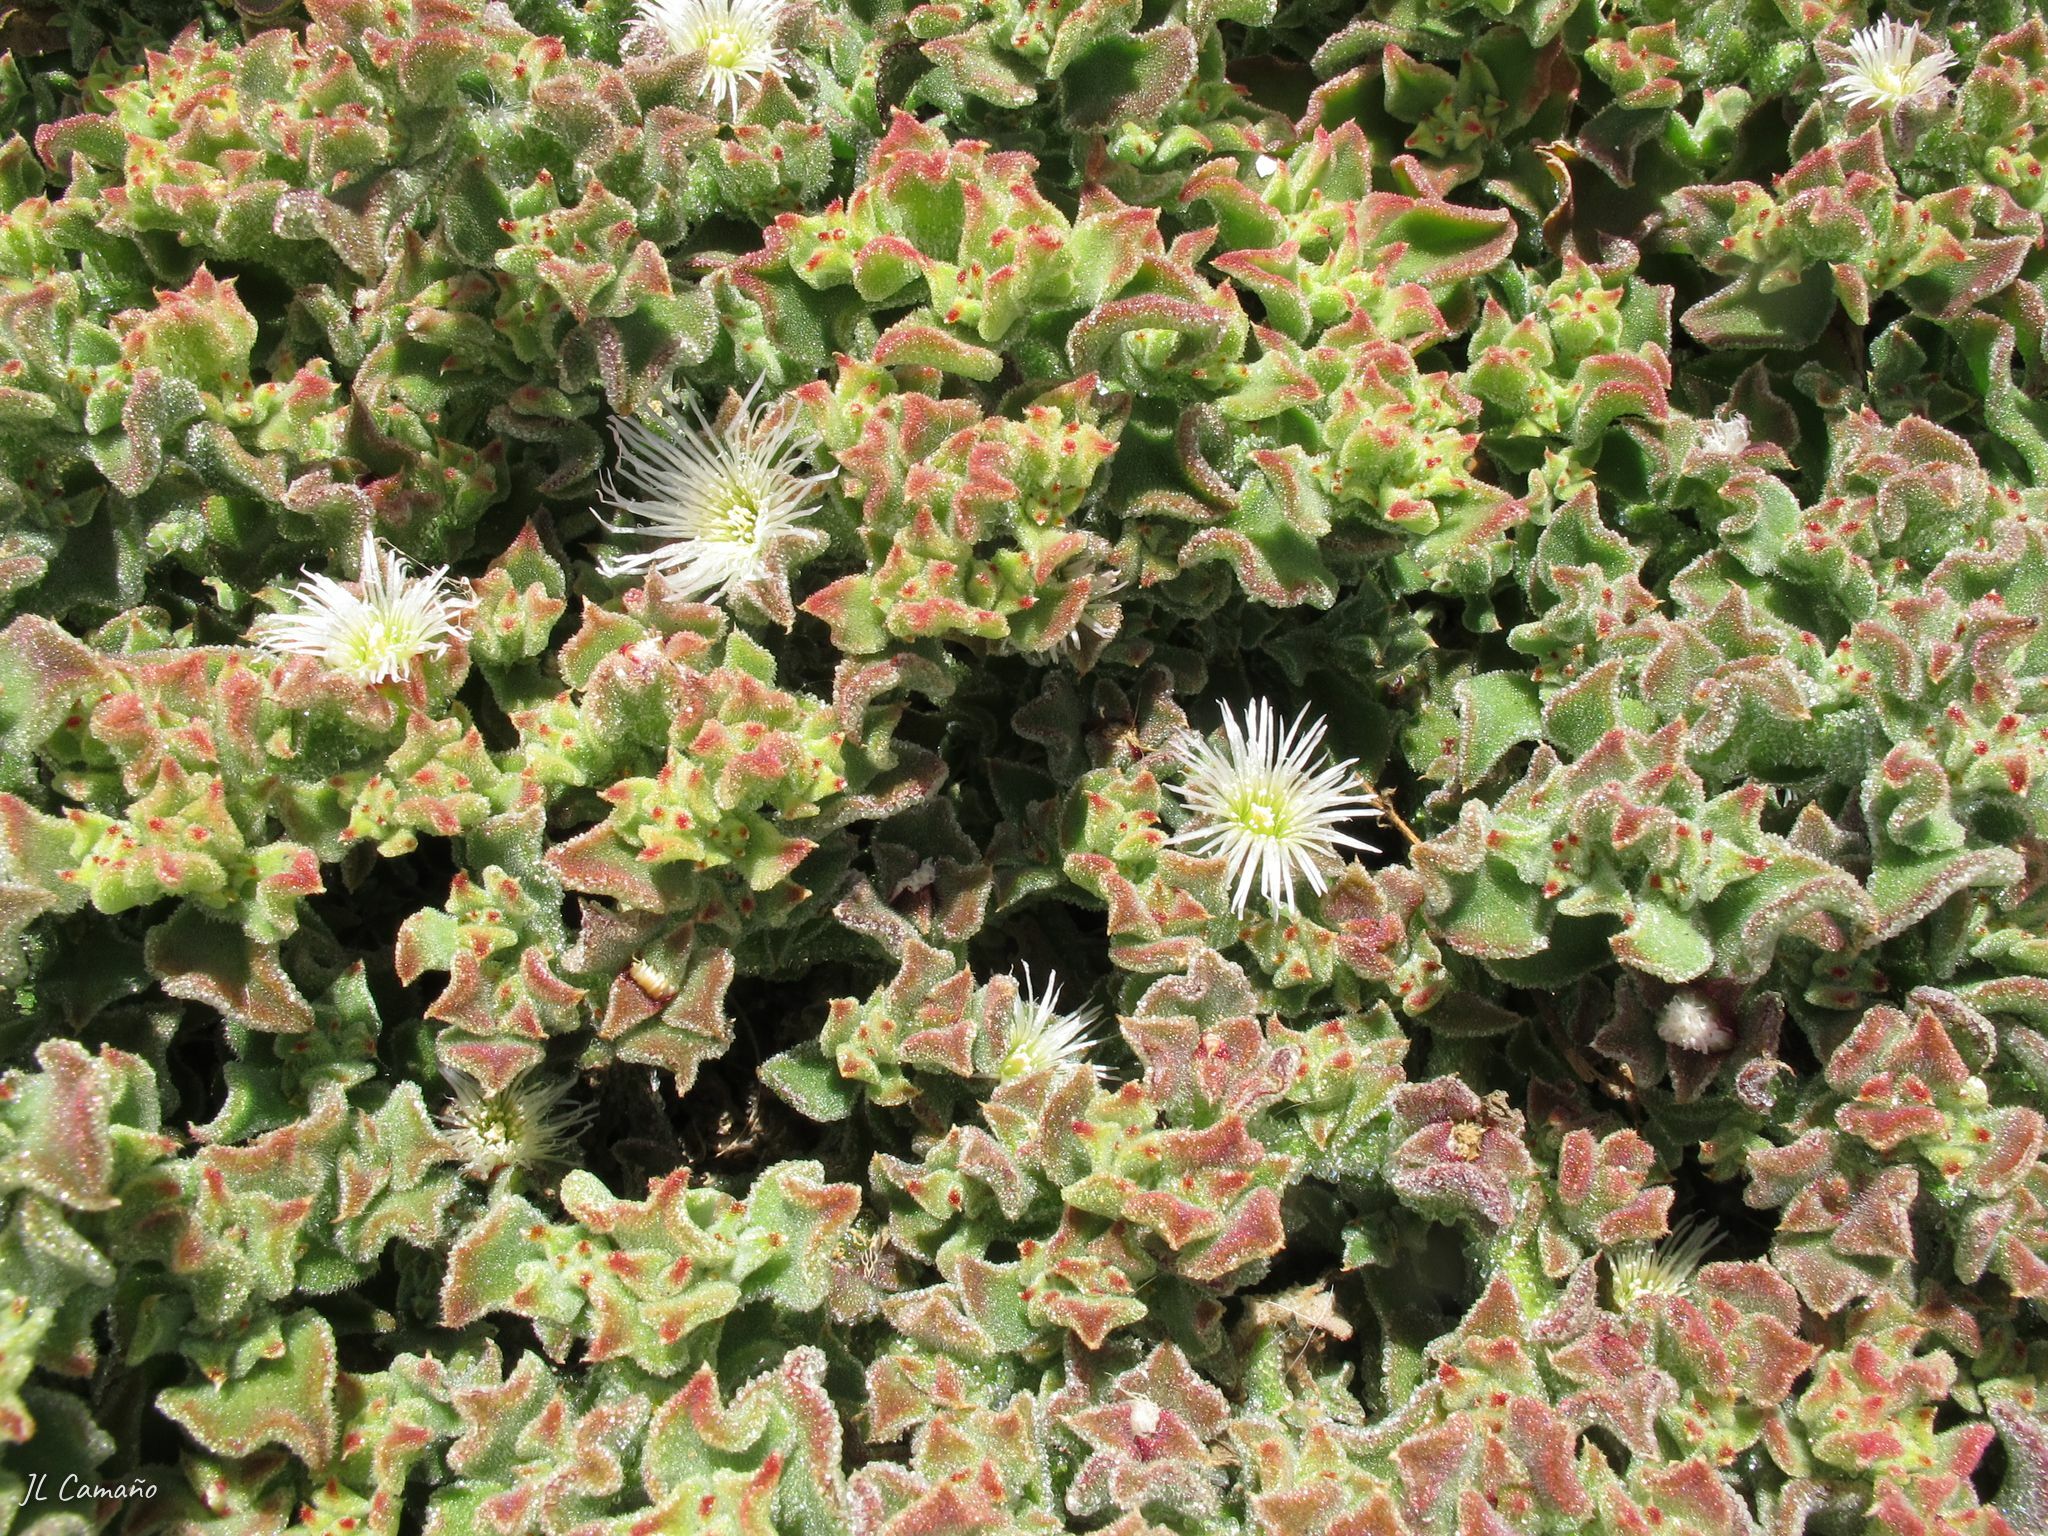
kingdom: Plantae
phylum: Tracheophyta
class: Magnoliopsida
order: Caryophyllales
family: Aizoaceae
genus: Mesembryanthemum
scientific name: Mesembryanthemum crystallinum
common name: Common iceplant
